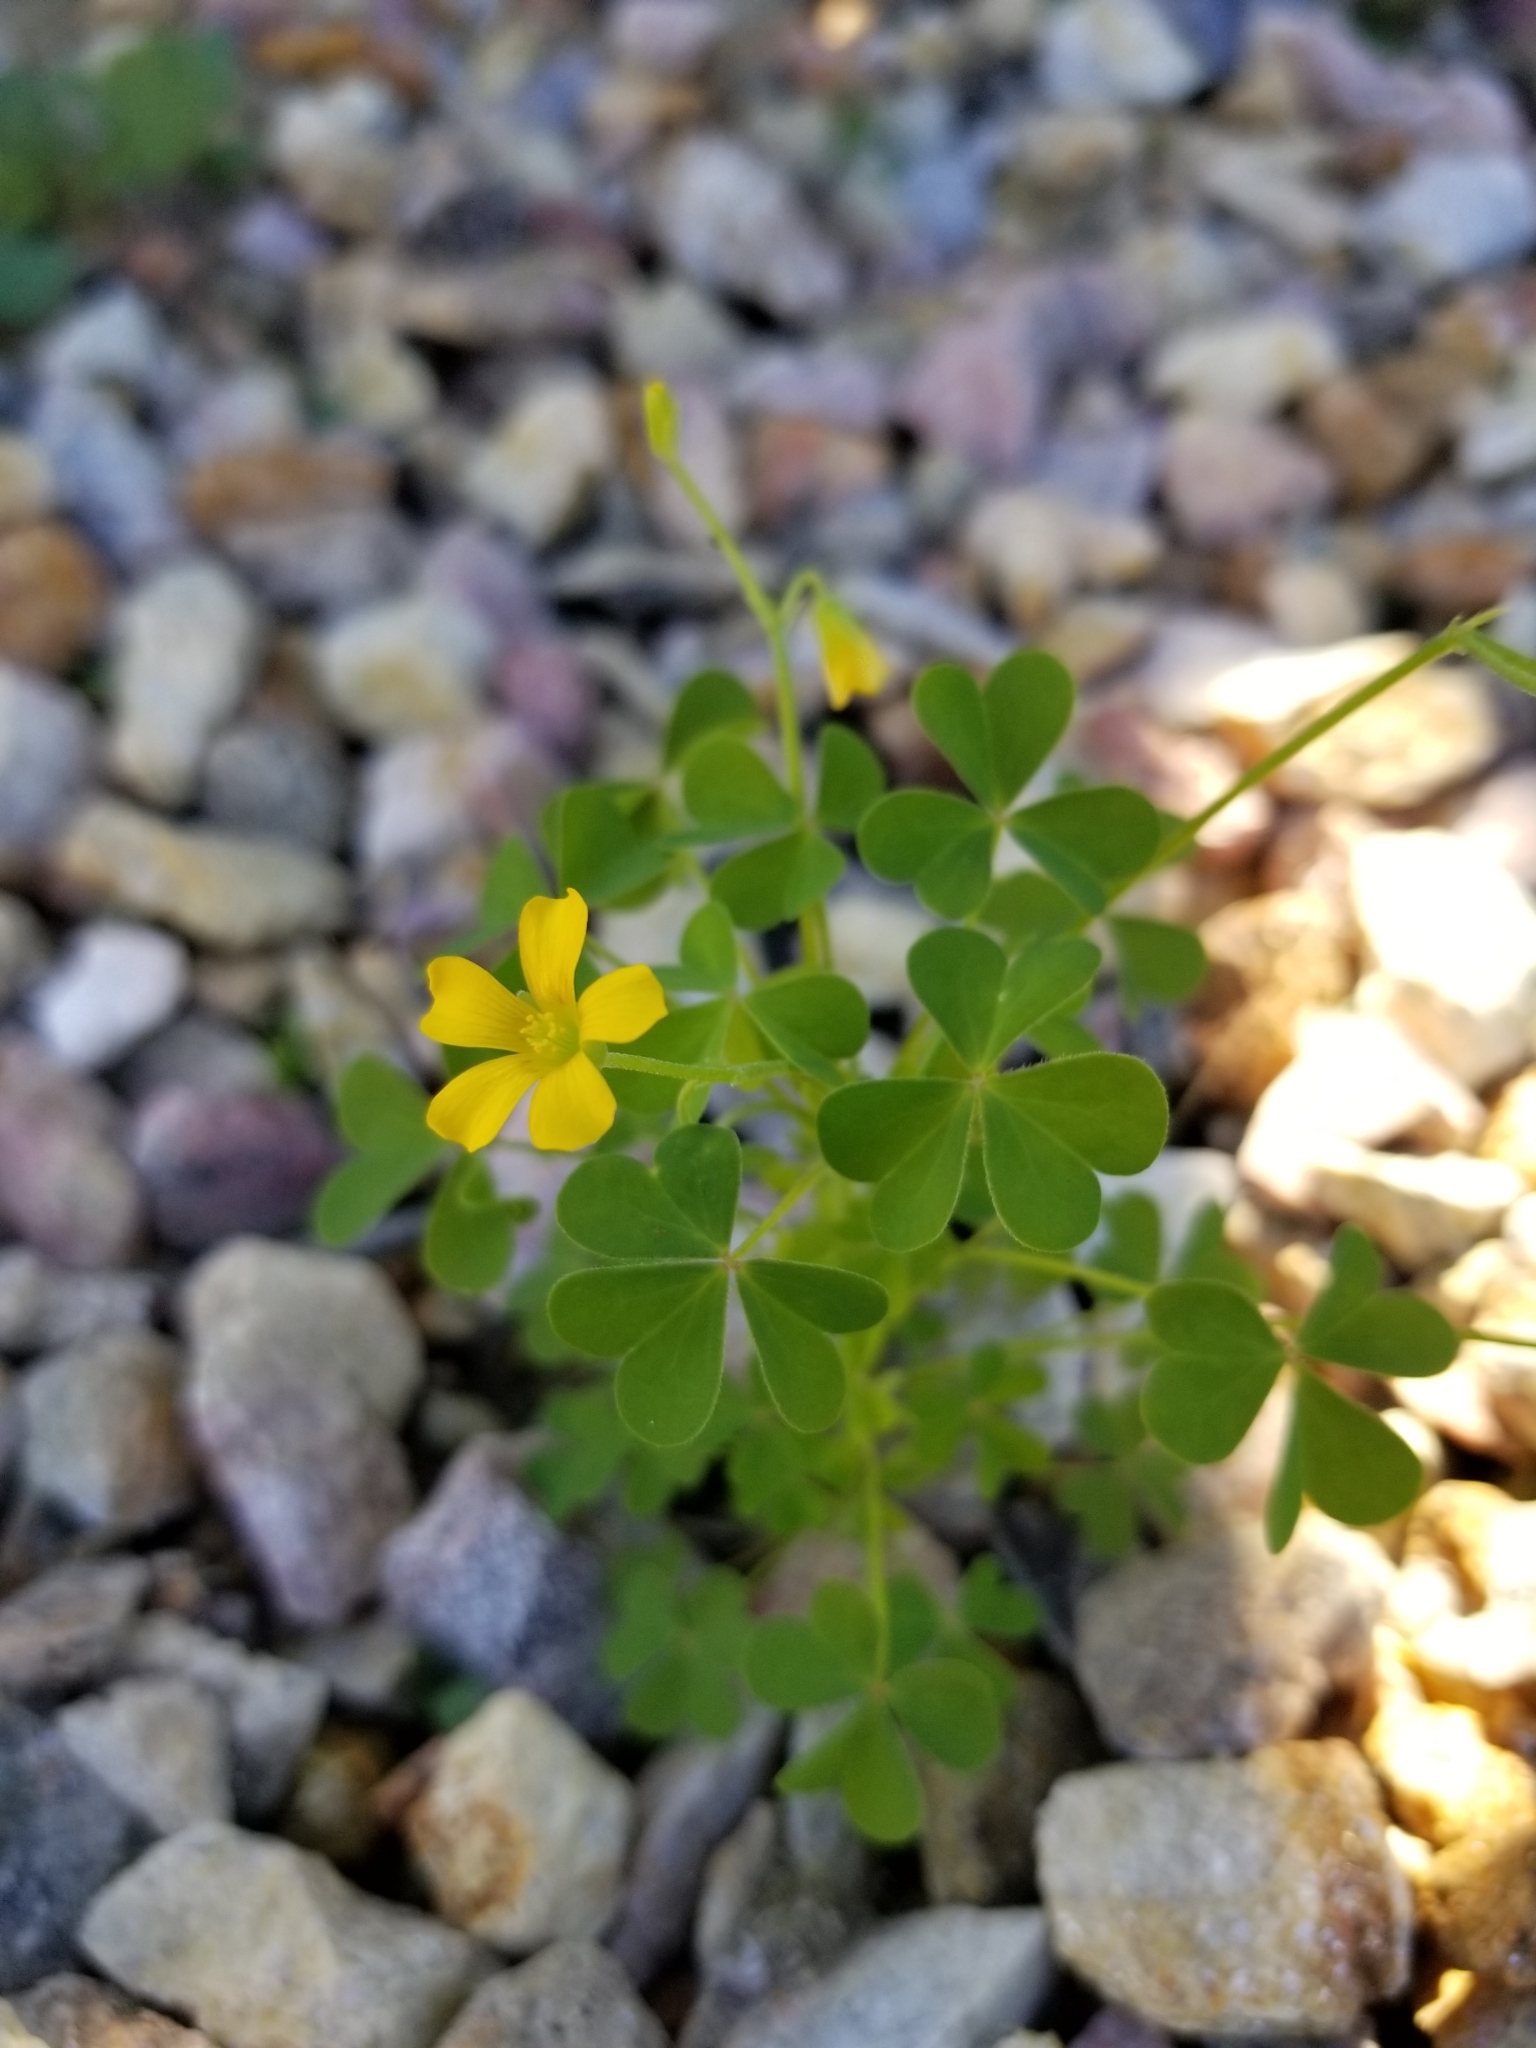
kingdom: Plantae
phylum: Tracheophyta
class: Magnoliopsida
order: Oxalidales
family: Oxalidaceae
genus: Oxalis
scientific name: Oxalis dillenii
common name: Sussex yellow-sorrel
